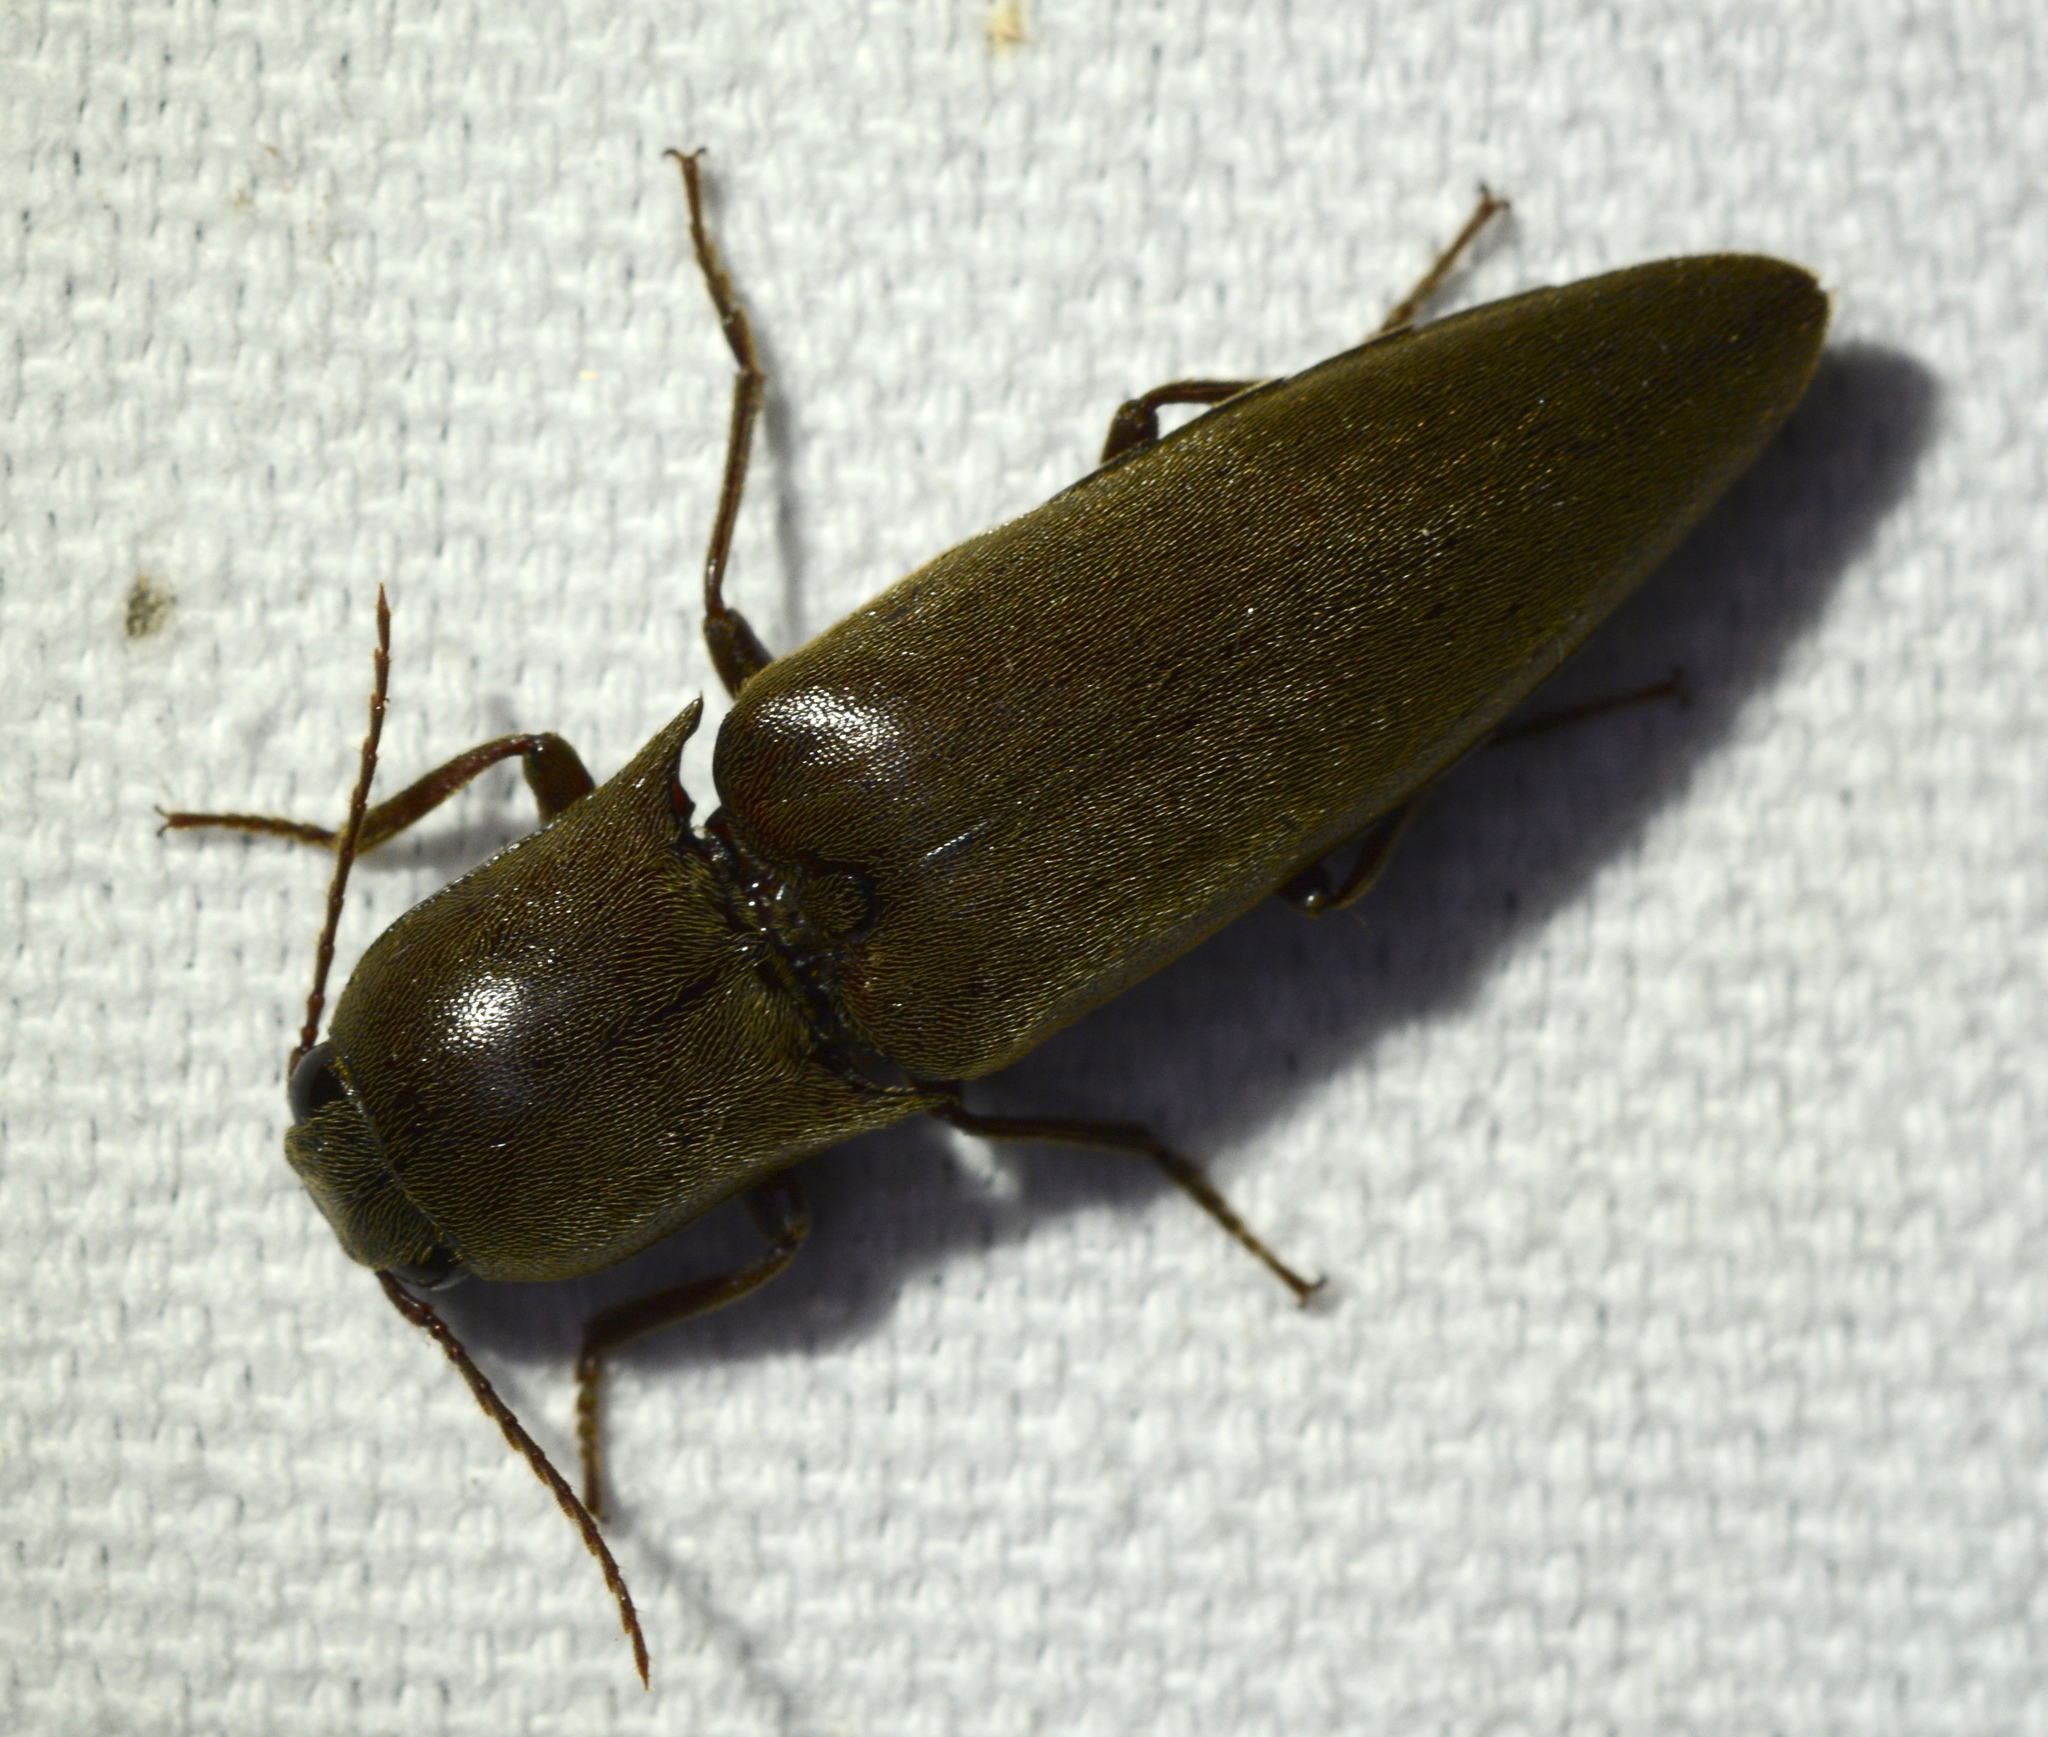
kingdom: Animalia
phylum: Arthropoda
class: Insecta
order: Coleoptera
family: Elateridae
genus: Orthostethus
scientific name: Orthostethus infuscatus
